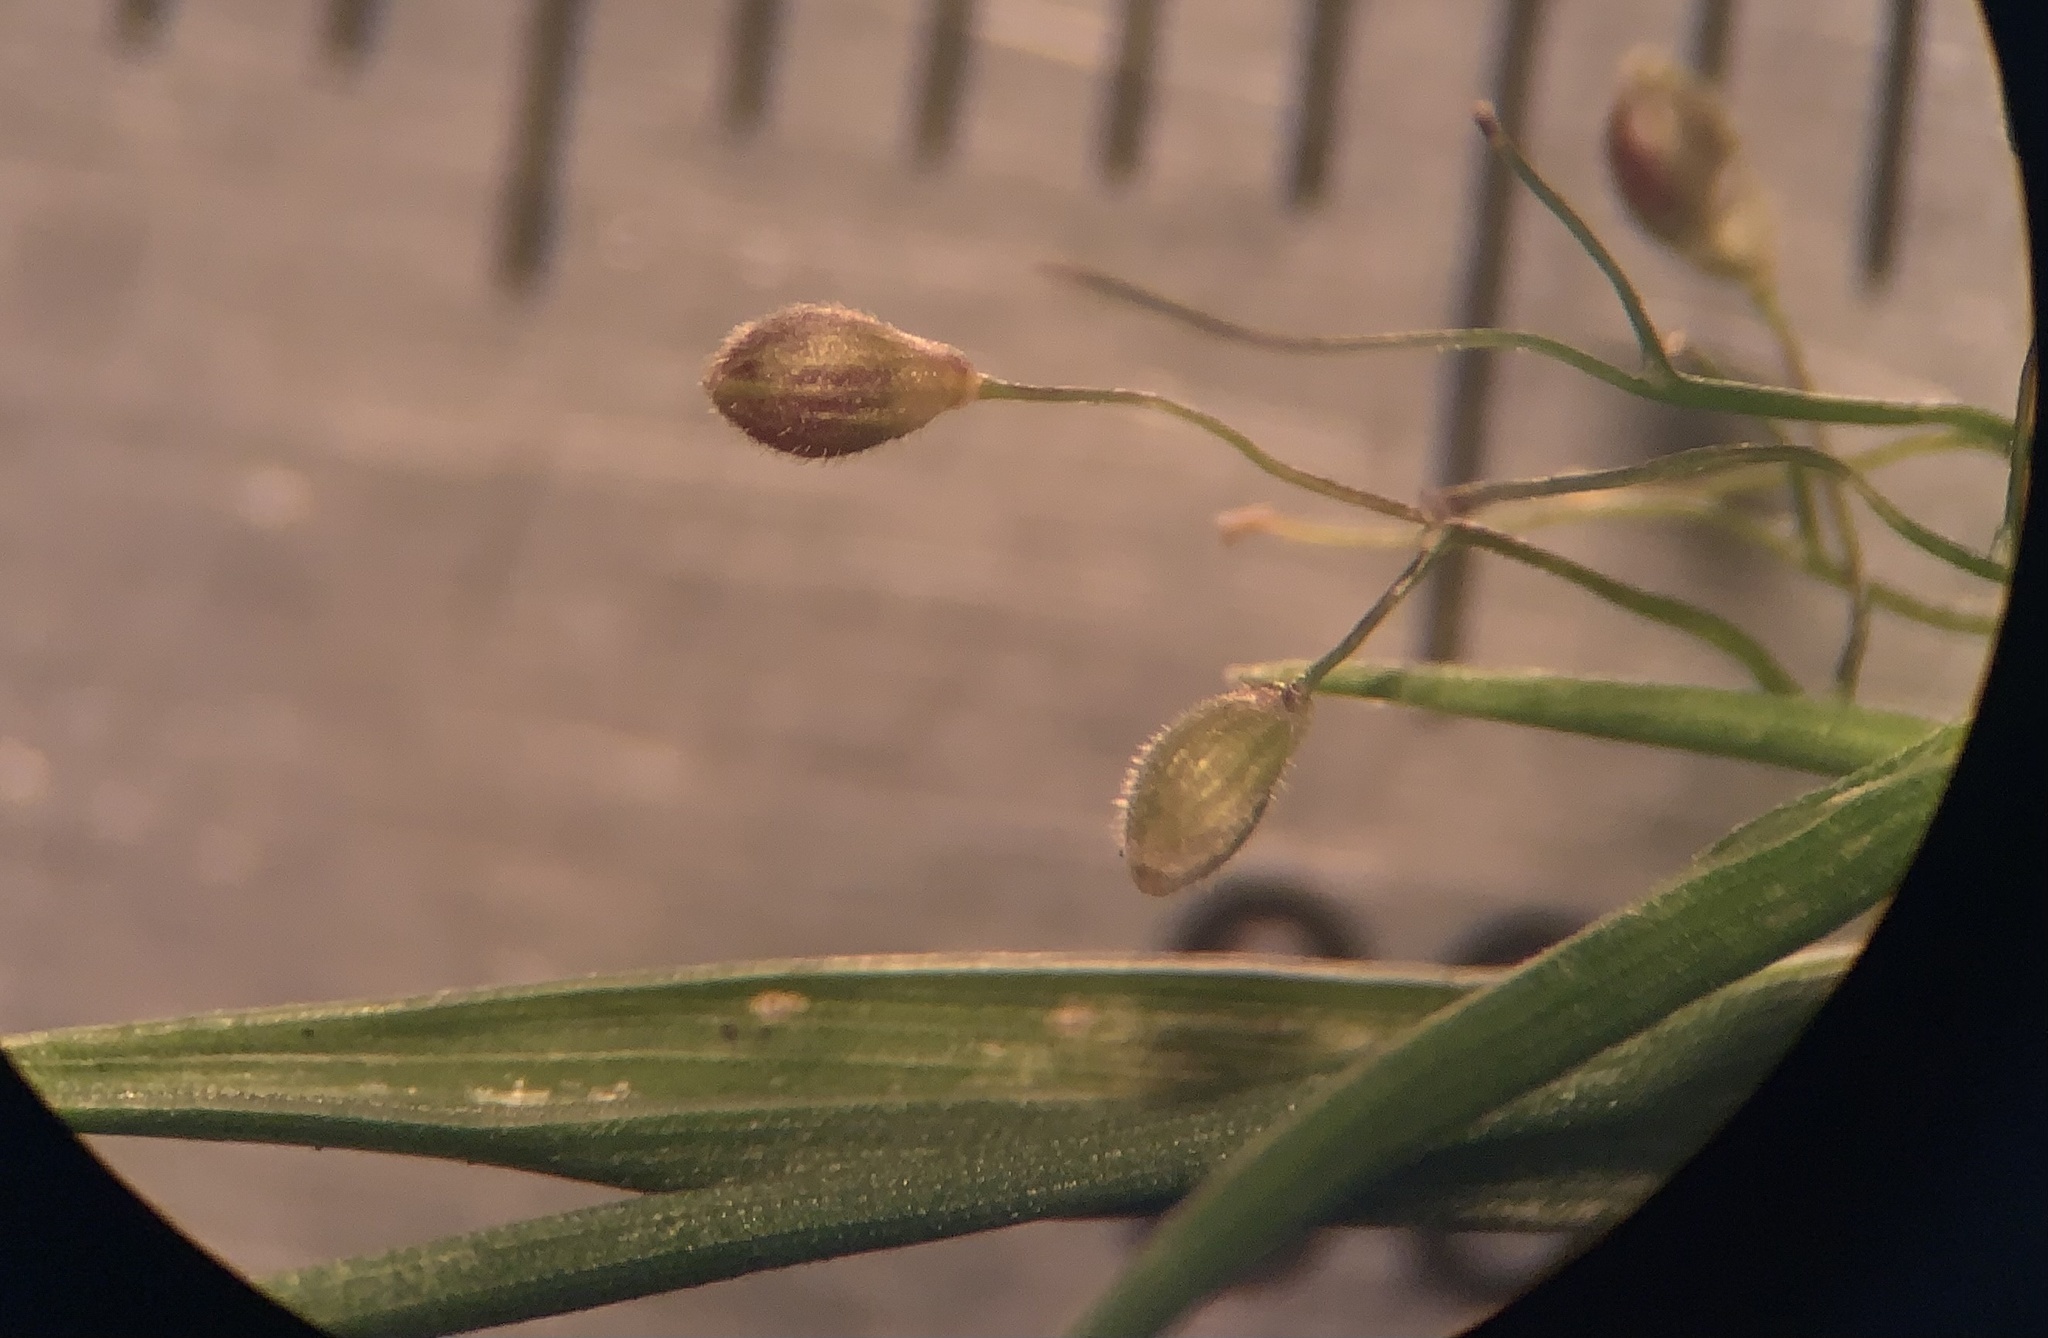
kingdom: Plantae
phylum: Tracheophyta
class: Liliopsida
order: Poales
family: Poaceae
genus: Dichanthelium
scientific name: Dichanthelium ensifolium
